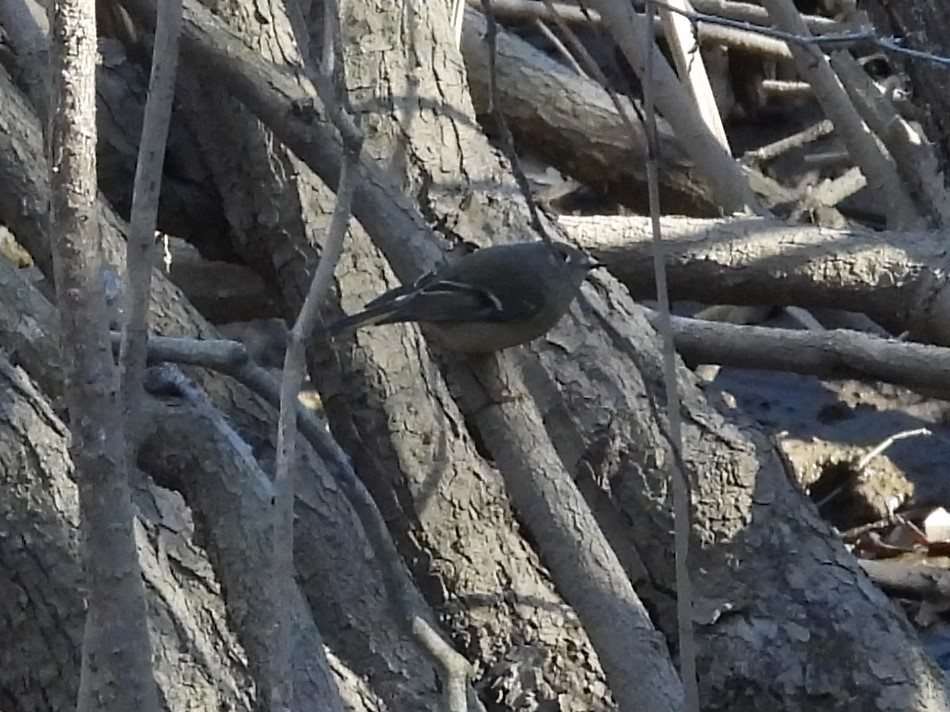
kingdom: Animalia
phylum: Chordata
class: Aves
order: Passeriformes
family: Regulidae
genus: Regulus
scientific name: Regulus calendula
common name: Ruby-crowned kinglet
